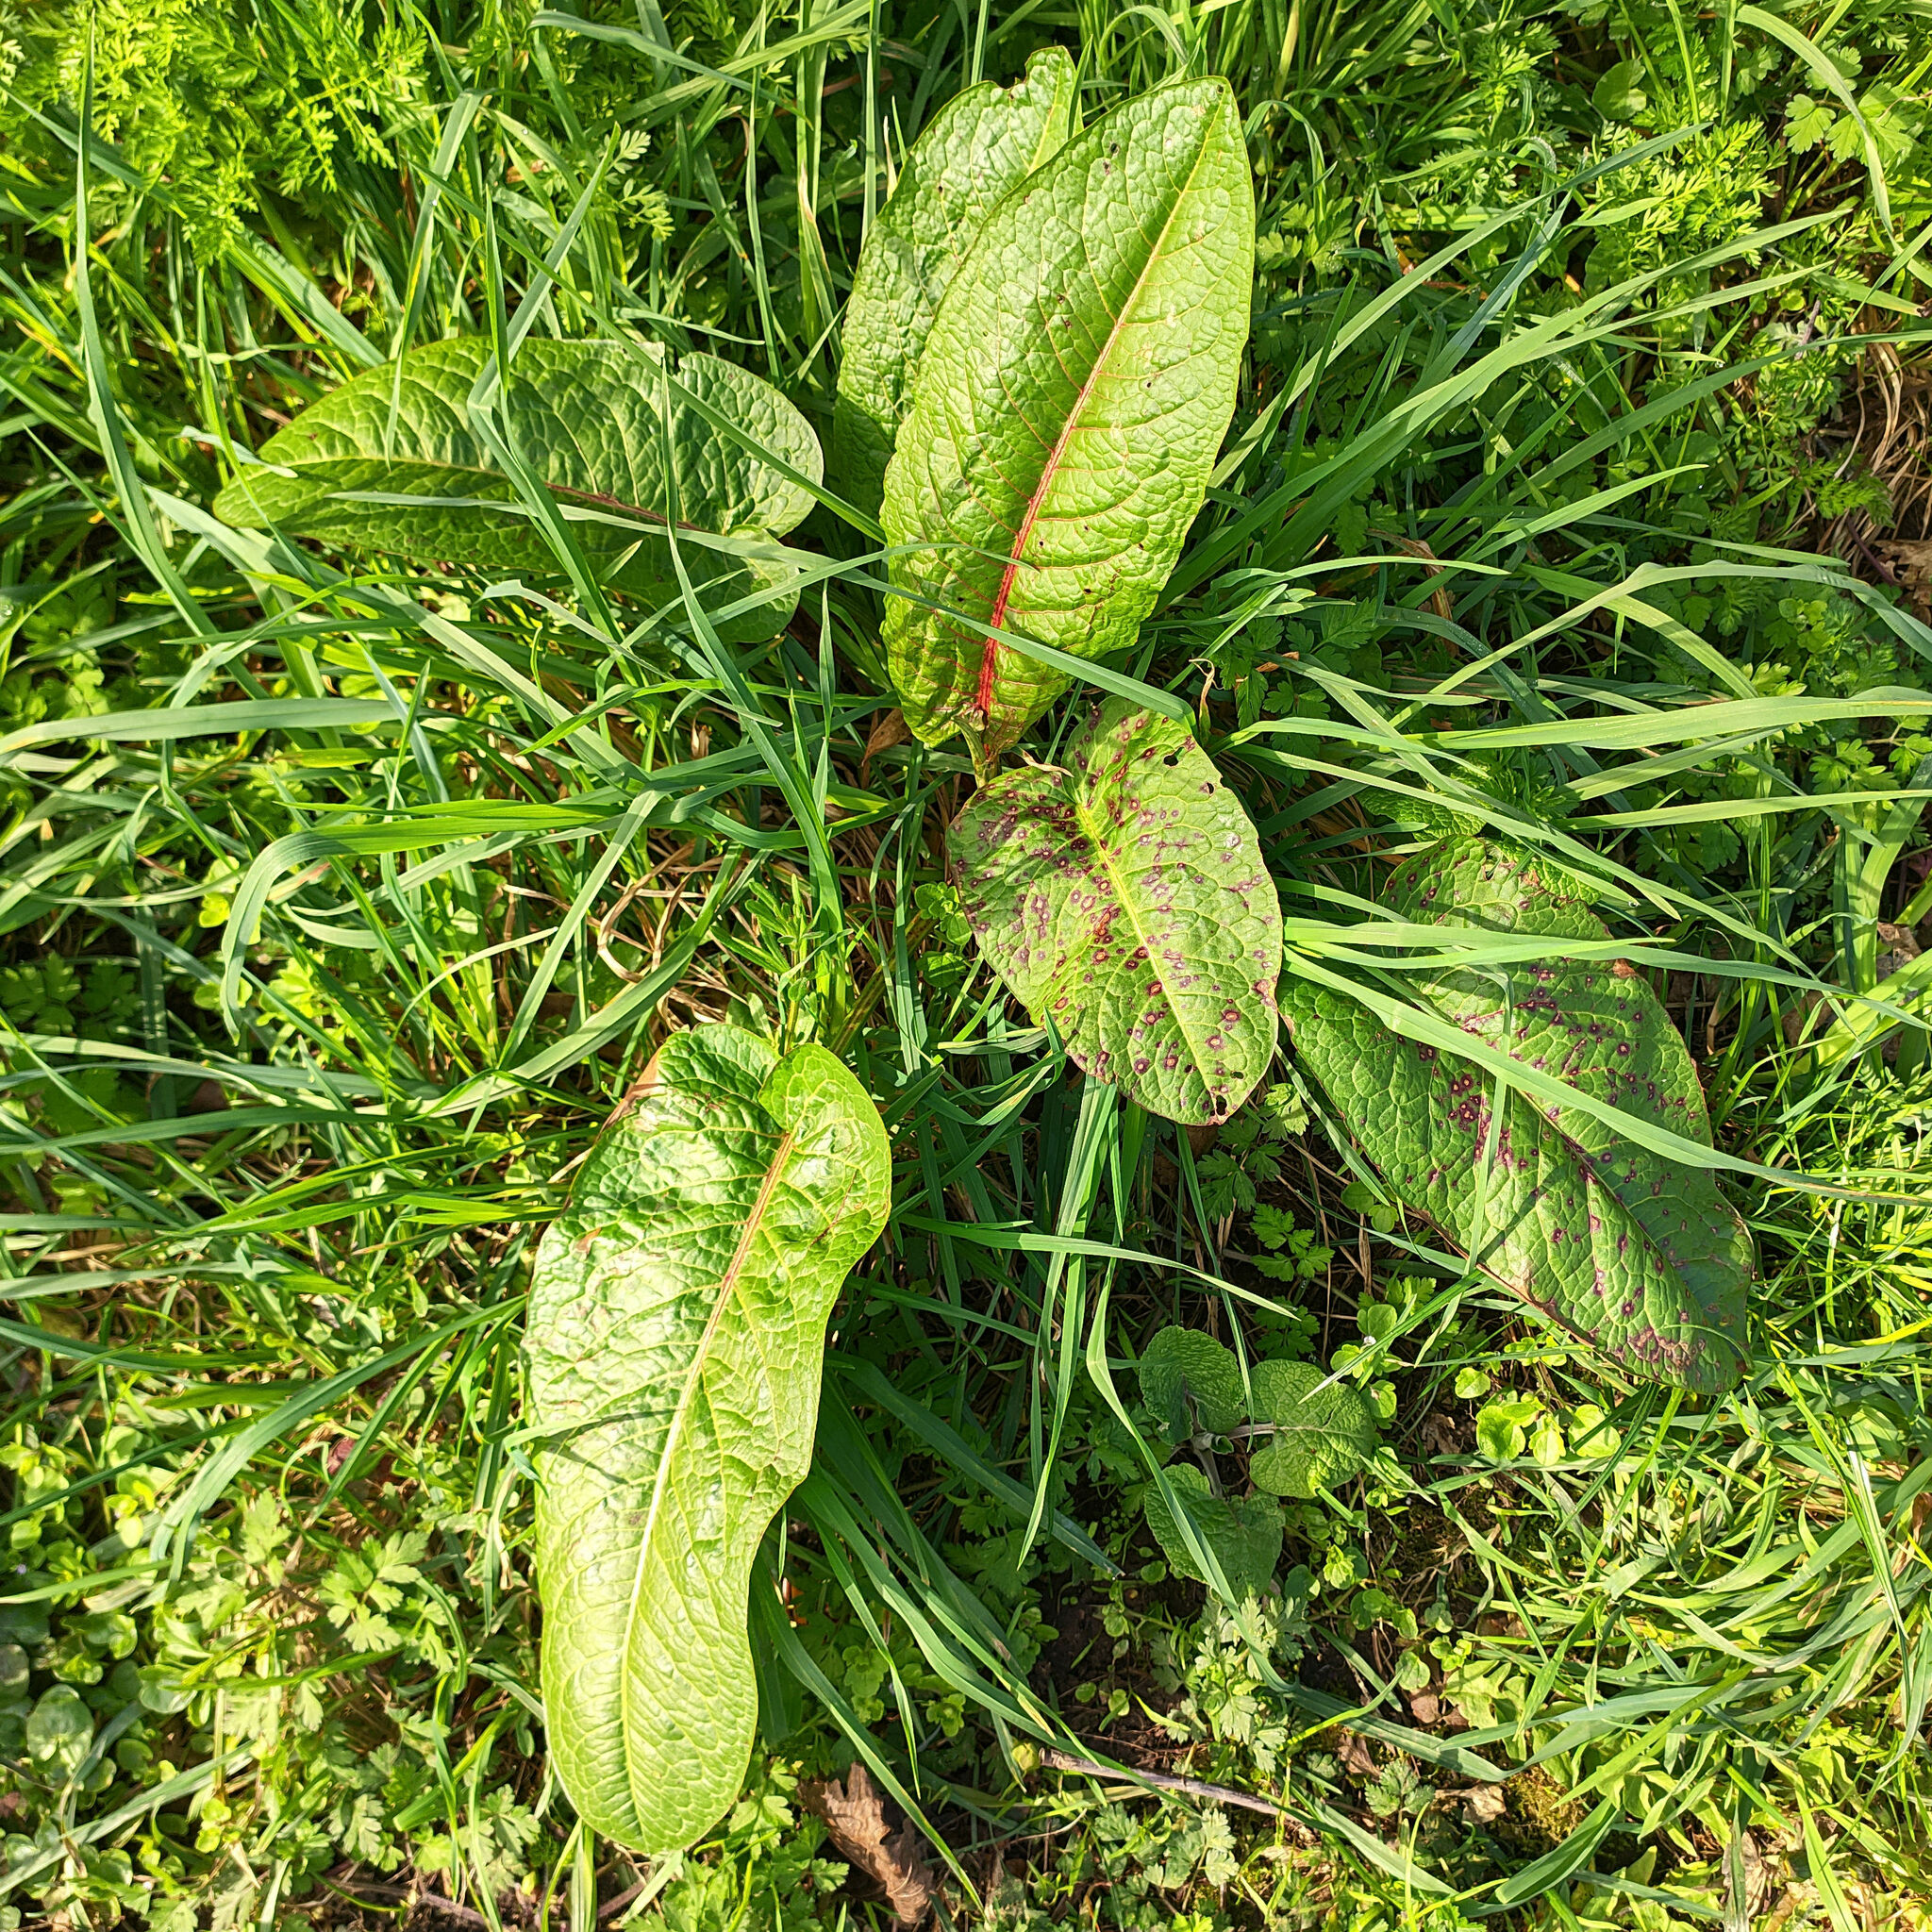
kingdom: Plantae
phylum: Tracheophyta
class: Magnoliopsida
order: Caryophyllales
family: Polygonaceae
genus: Rumex
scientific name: Rumex obtusifolius
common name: Bitter dock
